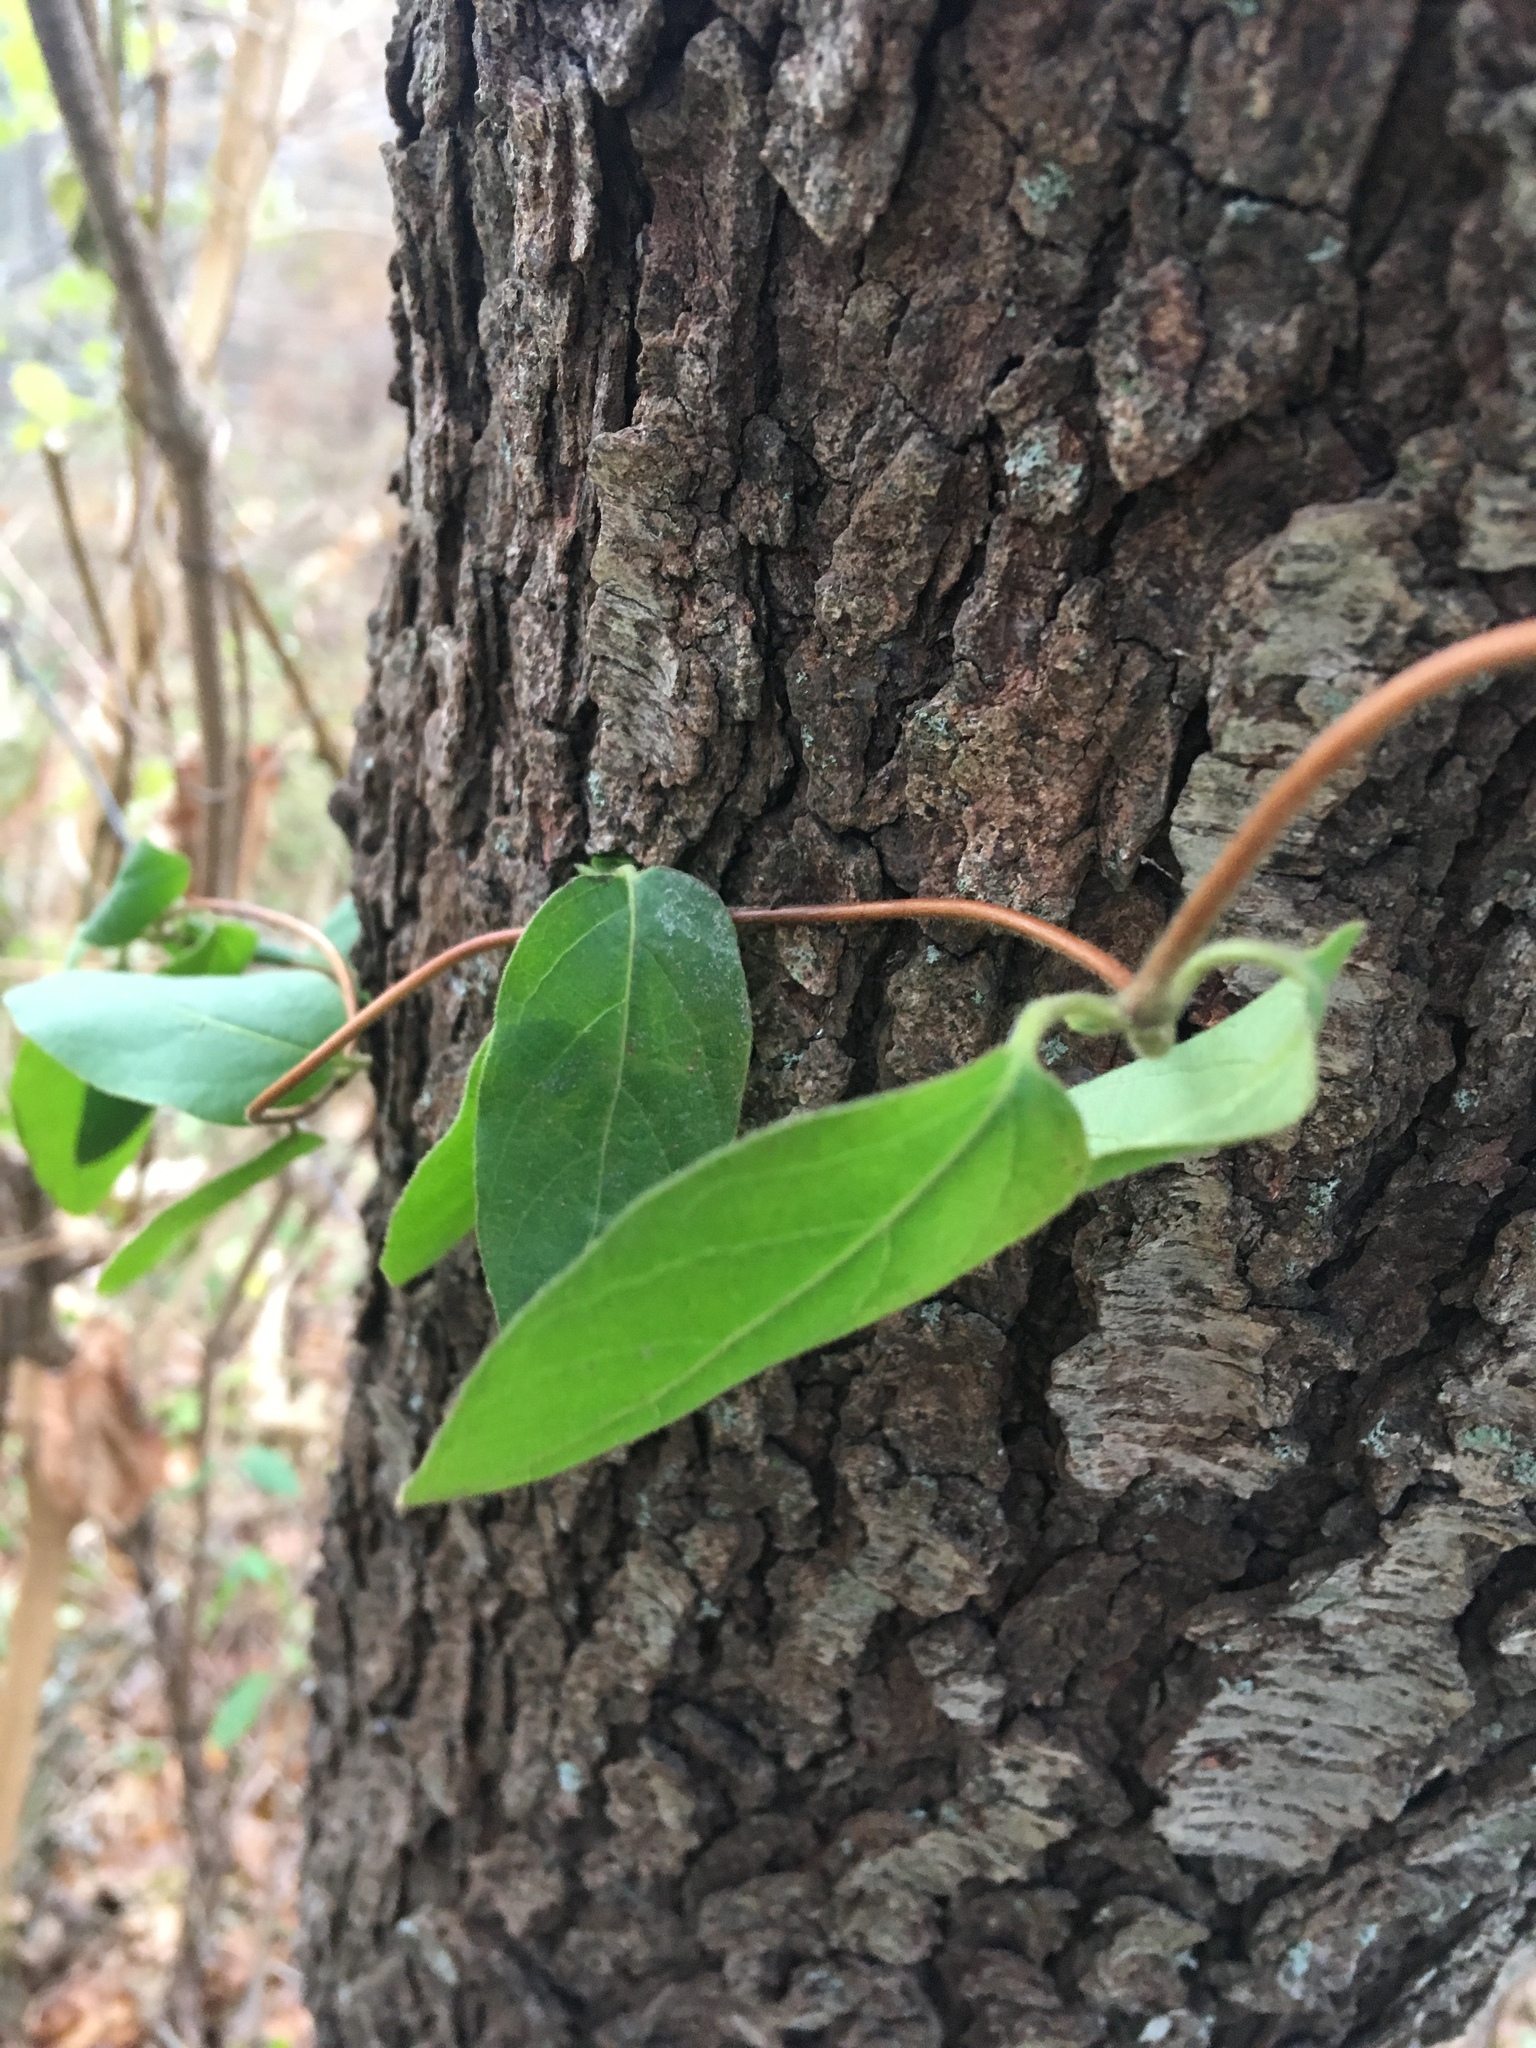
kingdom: Plantae
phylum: Tracheophyta
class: Magnoliopsida
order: Dipsacales
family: Caprifoliaceae
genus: Lonicera
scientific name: Lonicera japonica
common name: Japanese honeysuckle
